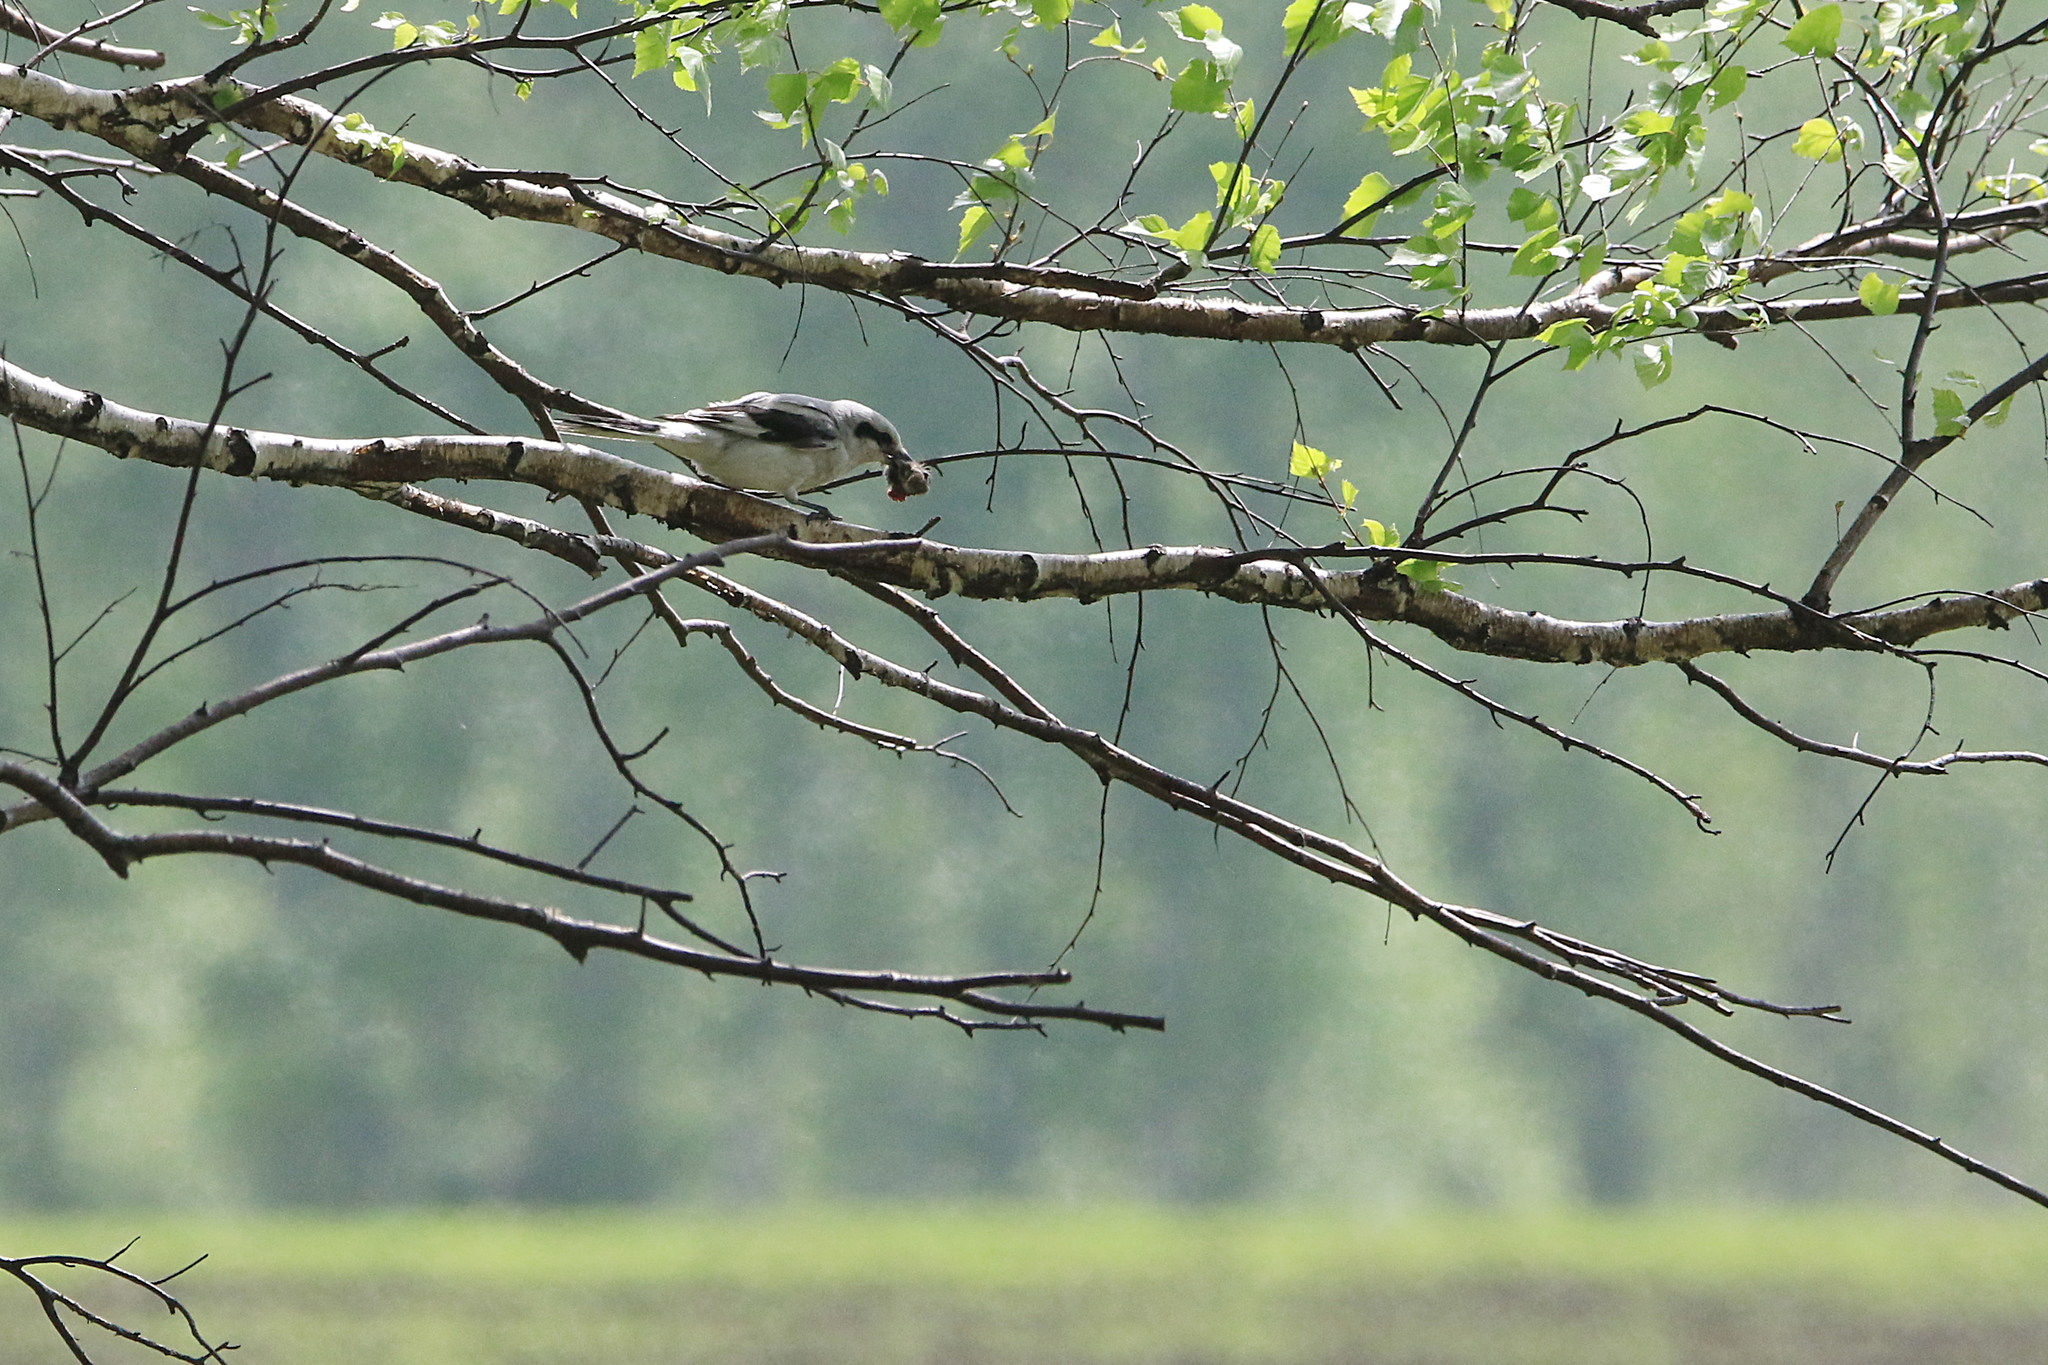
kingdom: Animalia
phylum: Chordata
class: Aves
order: Passeriformes
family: Laniidae
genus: Lanius
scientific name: Lanius excubitor
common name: Great grey shrike
